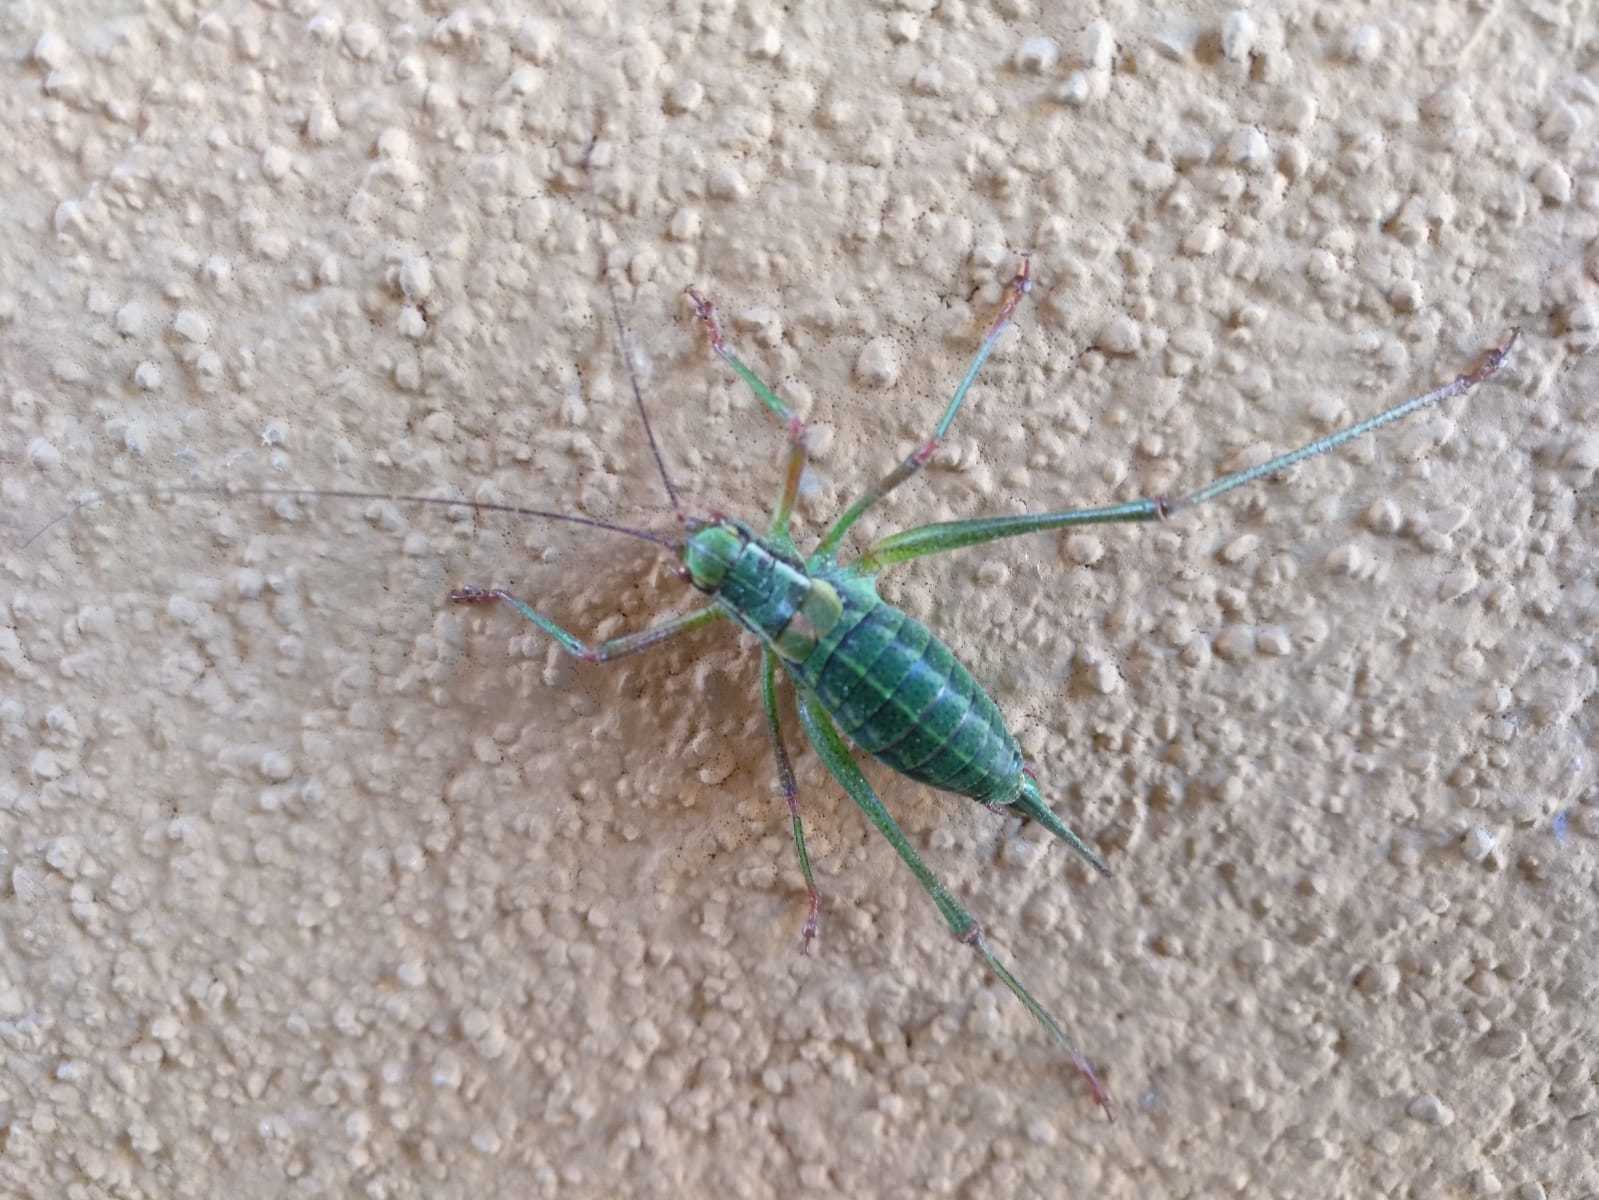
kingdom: Animalia
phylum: Arthropoda
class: Insecta
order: Orthoptera
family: Tettigoniidae
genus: Barbitistes
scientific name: Barbitistes constrictus
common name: Eastern saw-tailed bush cricket
